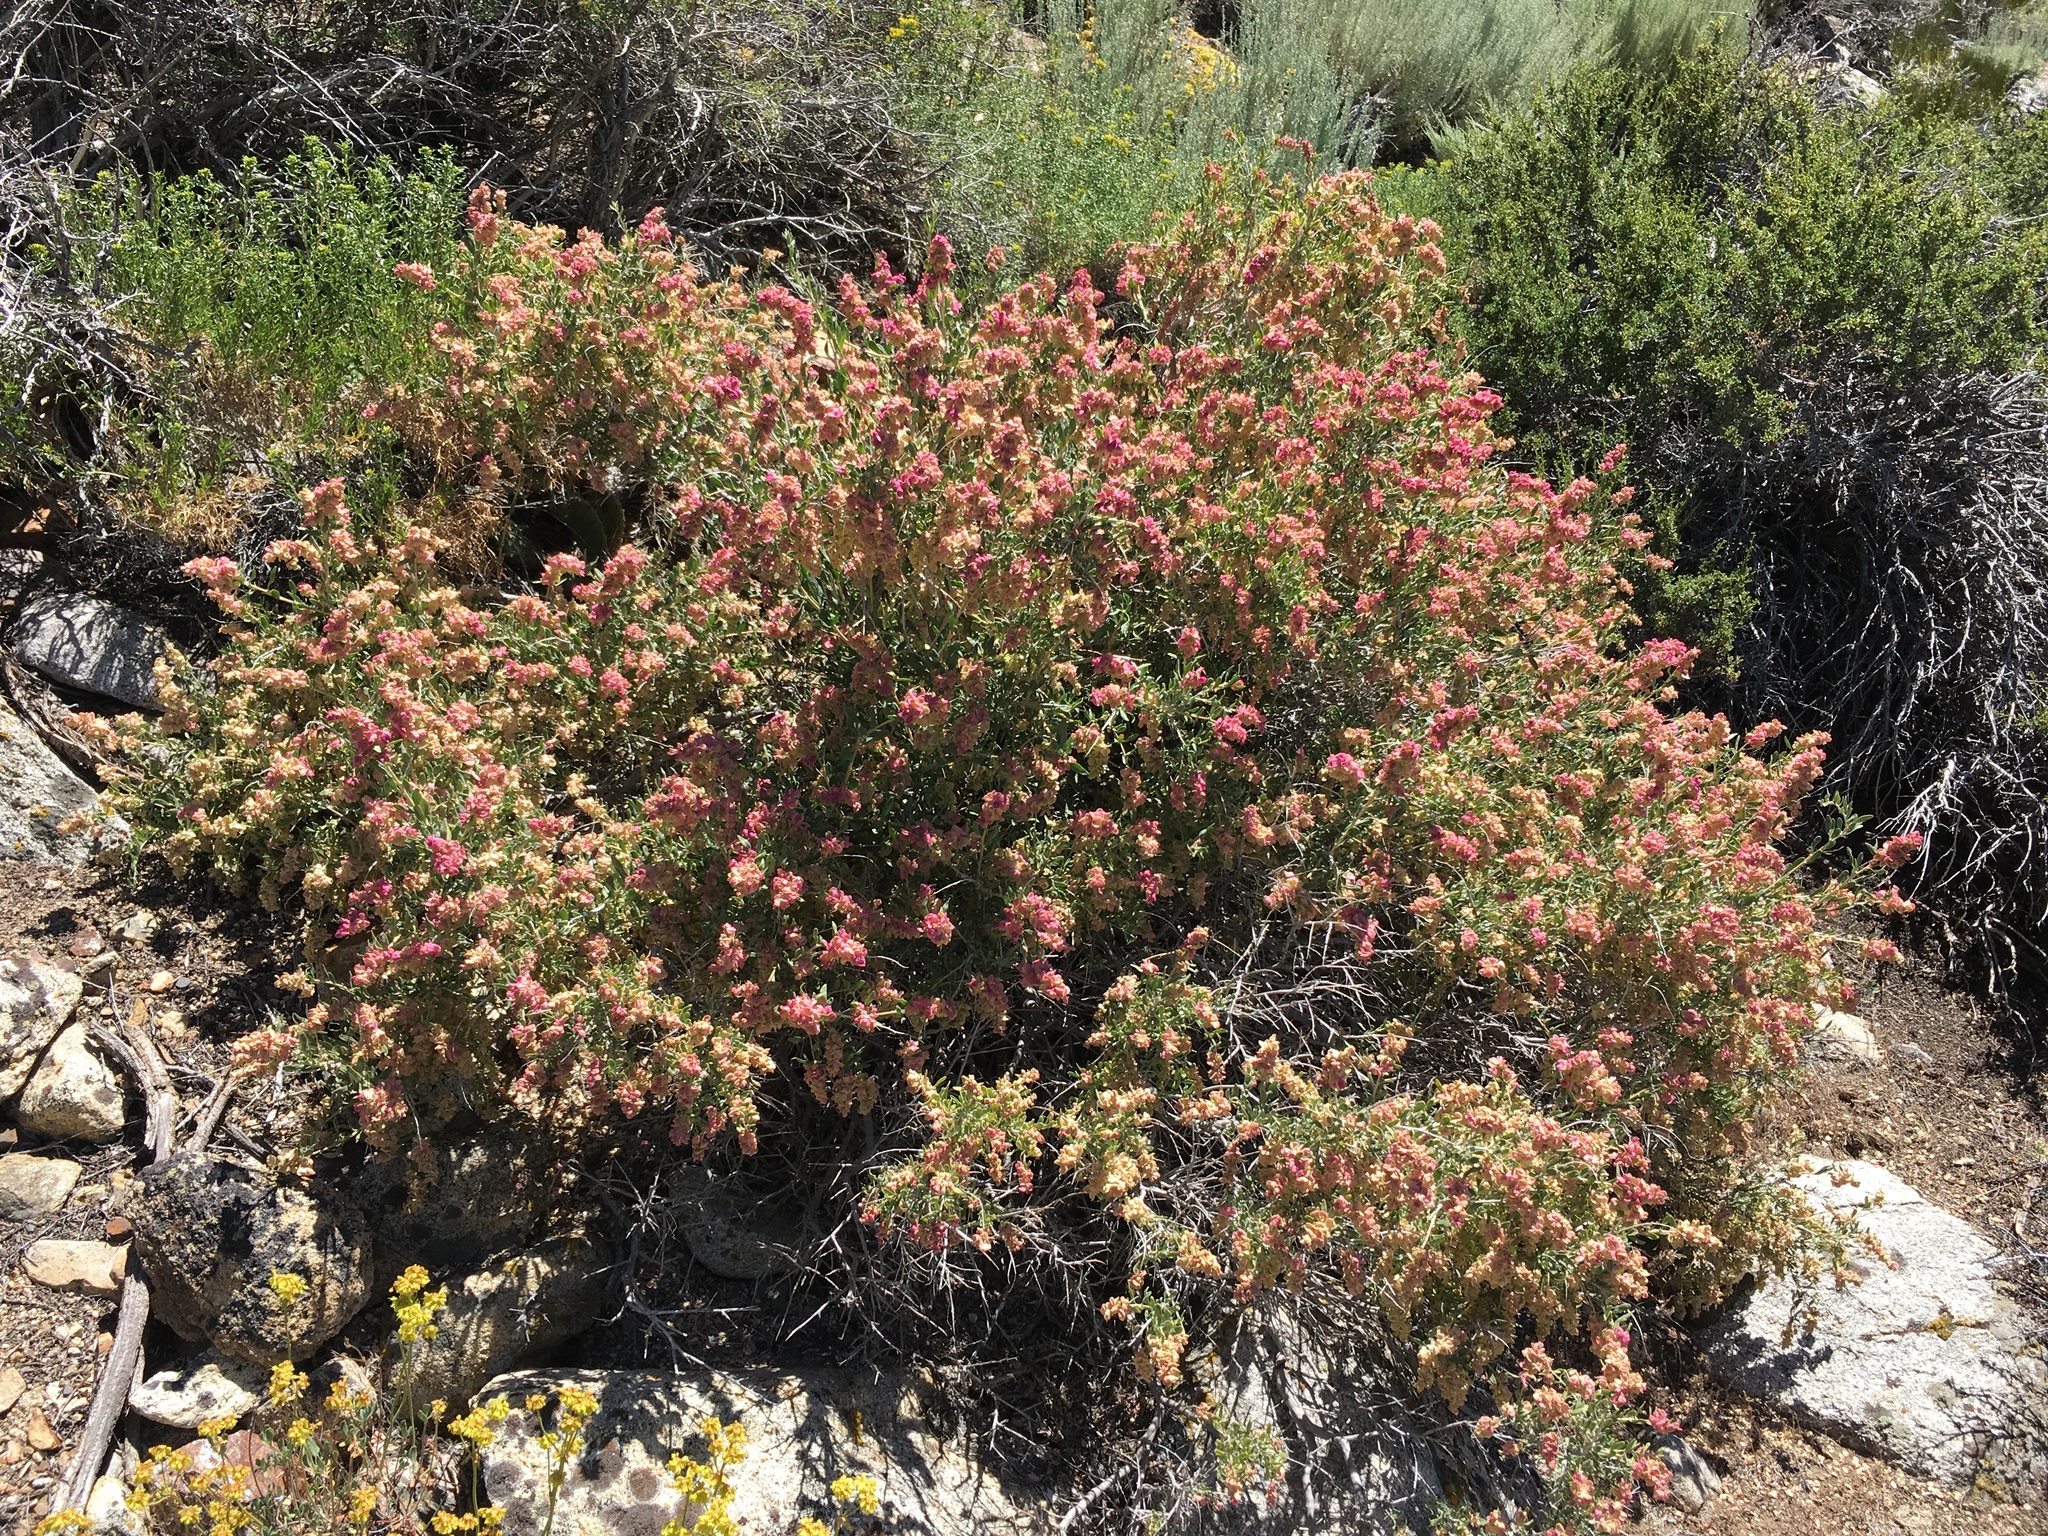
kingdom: Plantae
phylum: Tracheophyta
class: Magnoliopsida
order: Caryophyllales
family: Amaranthaceae
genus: Grayia
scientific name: Grayia spinosa
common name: Spiny hopsage
